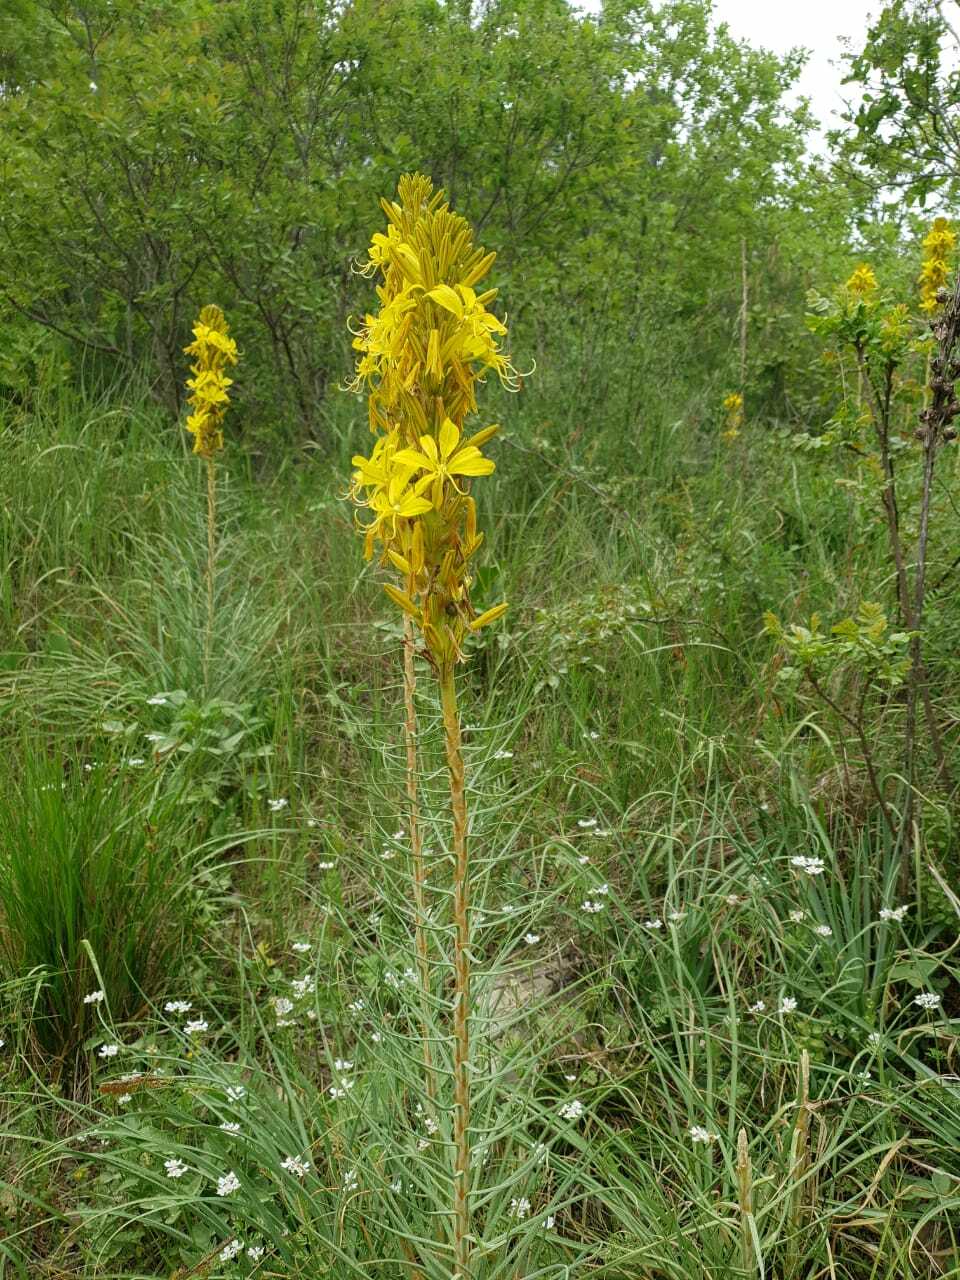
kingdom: Plantae
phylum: Tracheophyta
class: Liliopsida
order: Asparagales
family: Asphodelaceae
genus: Asphodeline
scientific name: Asphodeline lutea
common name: Yellow asphodel
